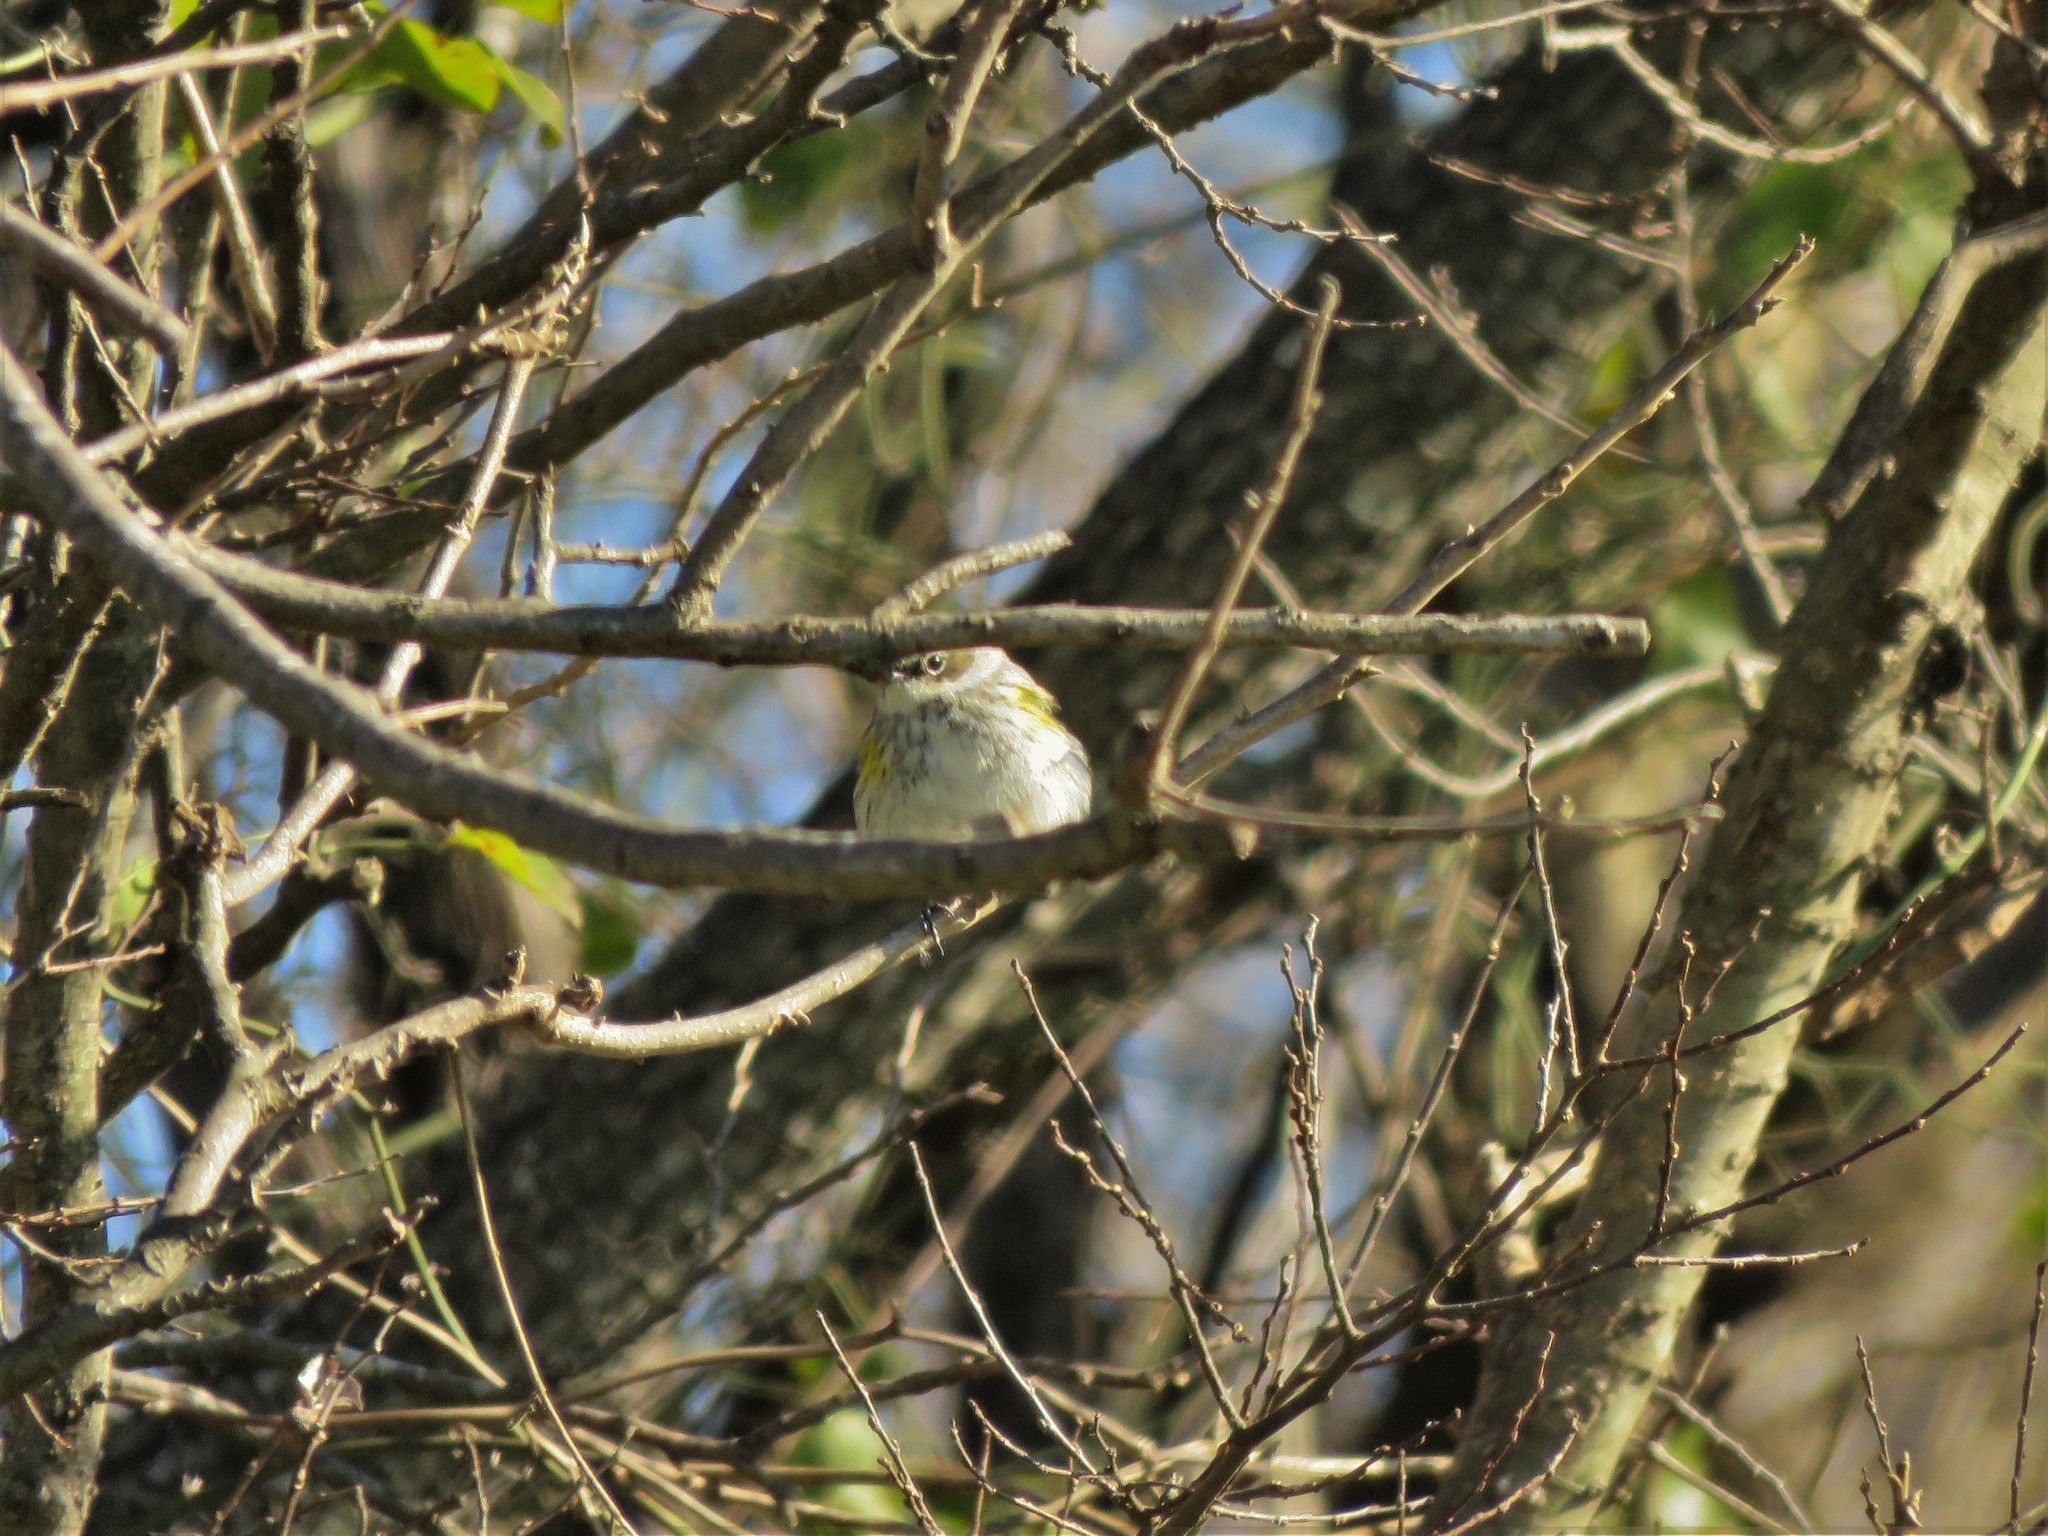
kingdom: Animalia
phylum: Chordata
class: Aves
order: Passeriformes
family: Parulidae
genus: Setophaga
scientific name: Setophaga coronata
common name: Myrtle warbler
